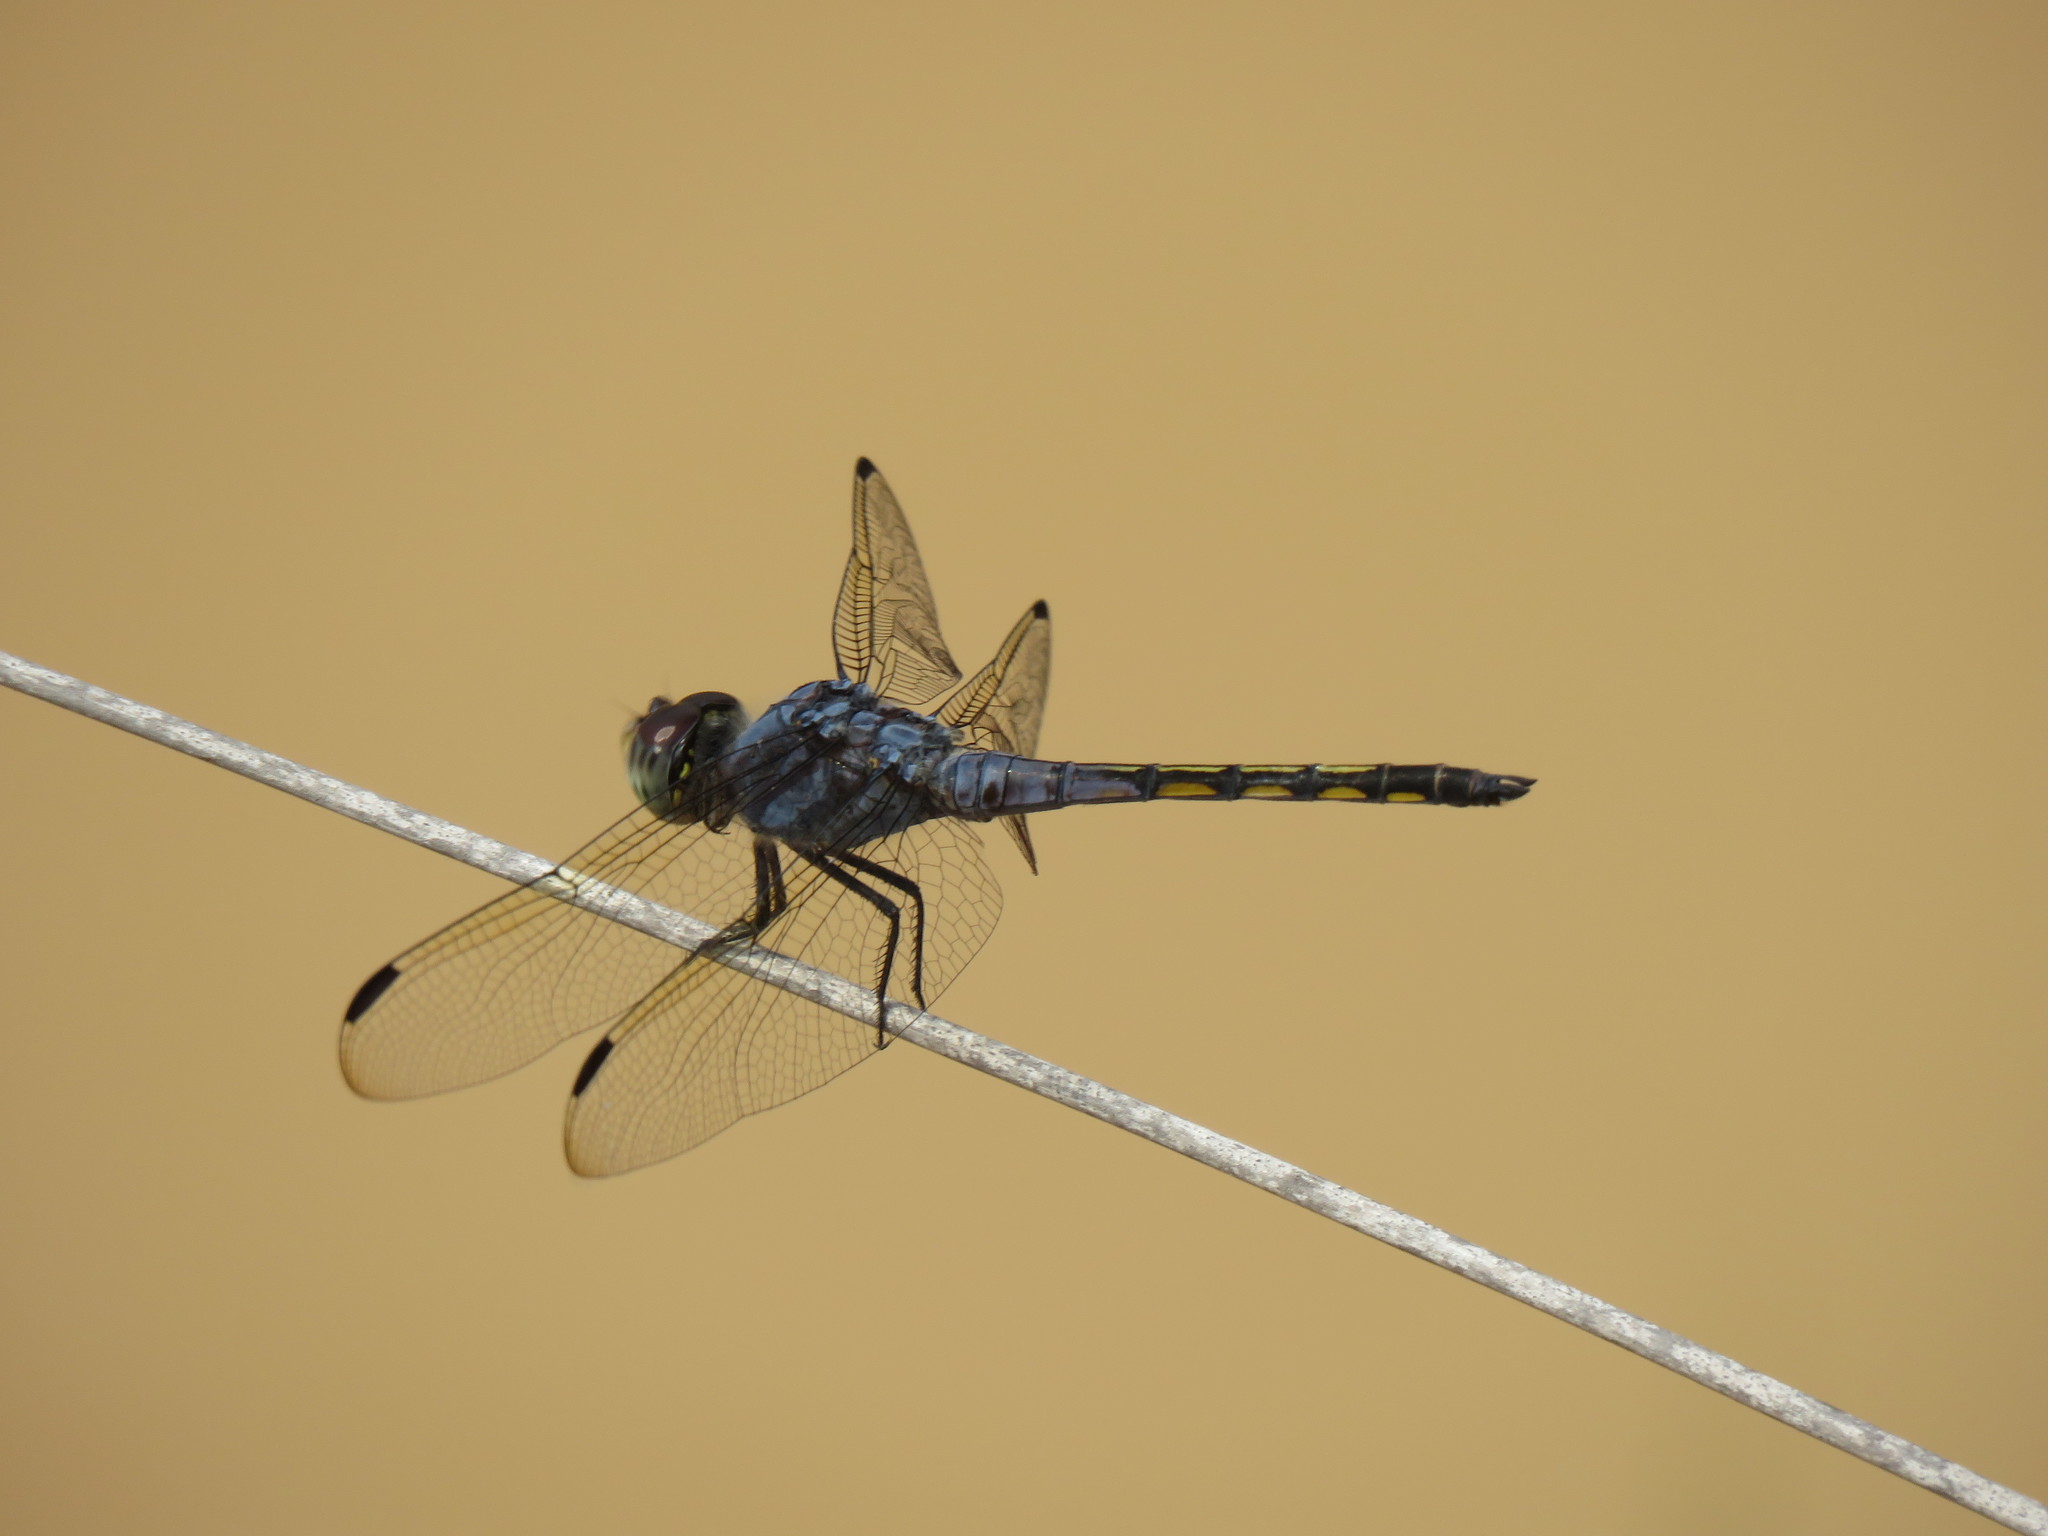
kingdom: Animalia
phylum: Arthropoda
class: Insecta
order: Odonata
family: Libellulidae
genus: Potamarcha
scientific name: Potamarcha congener
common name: Blue chaser
